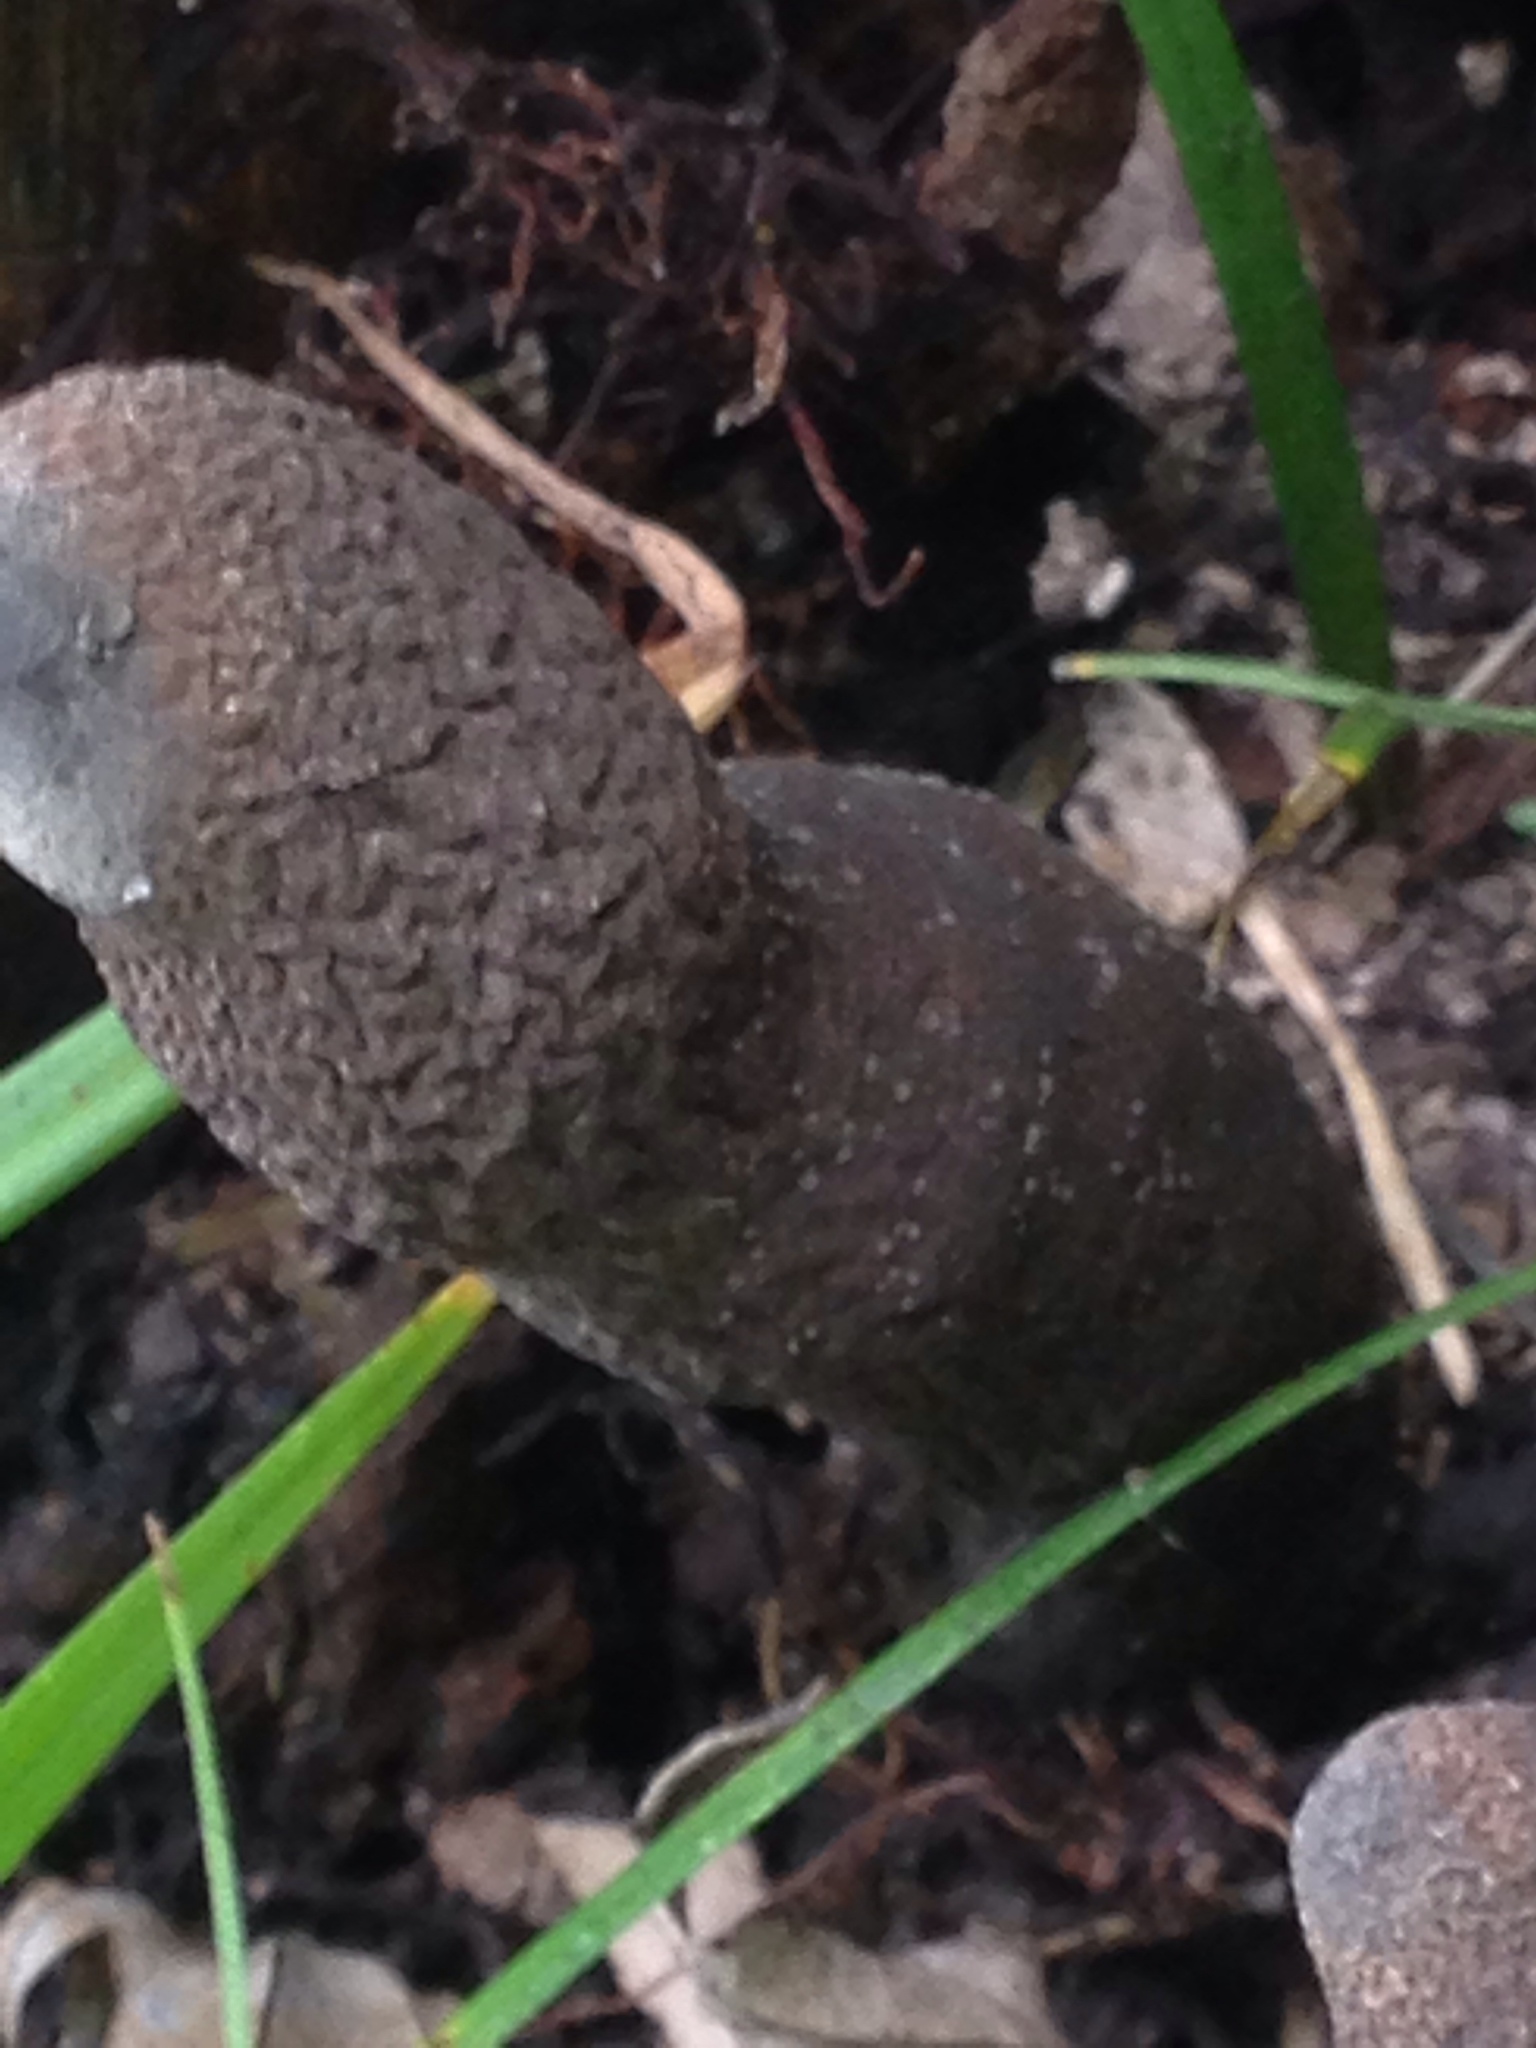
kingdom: Fungi
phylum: Ascomycota
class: Sordariomycetes
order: Xylariales
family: Xylariaceae
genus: Xylaria
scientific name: Xylaria polymorpha
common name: Dead man's fingers
